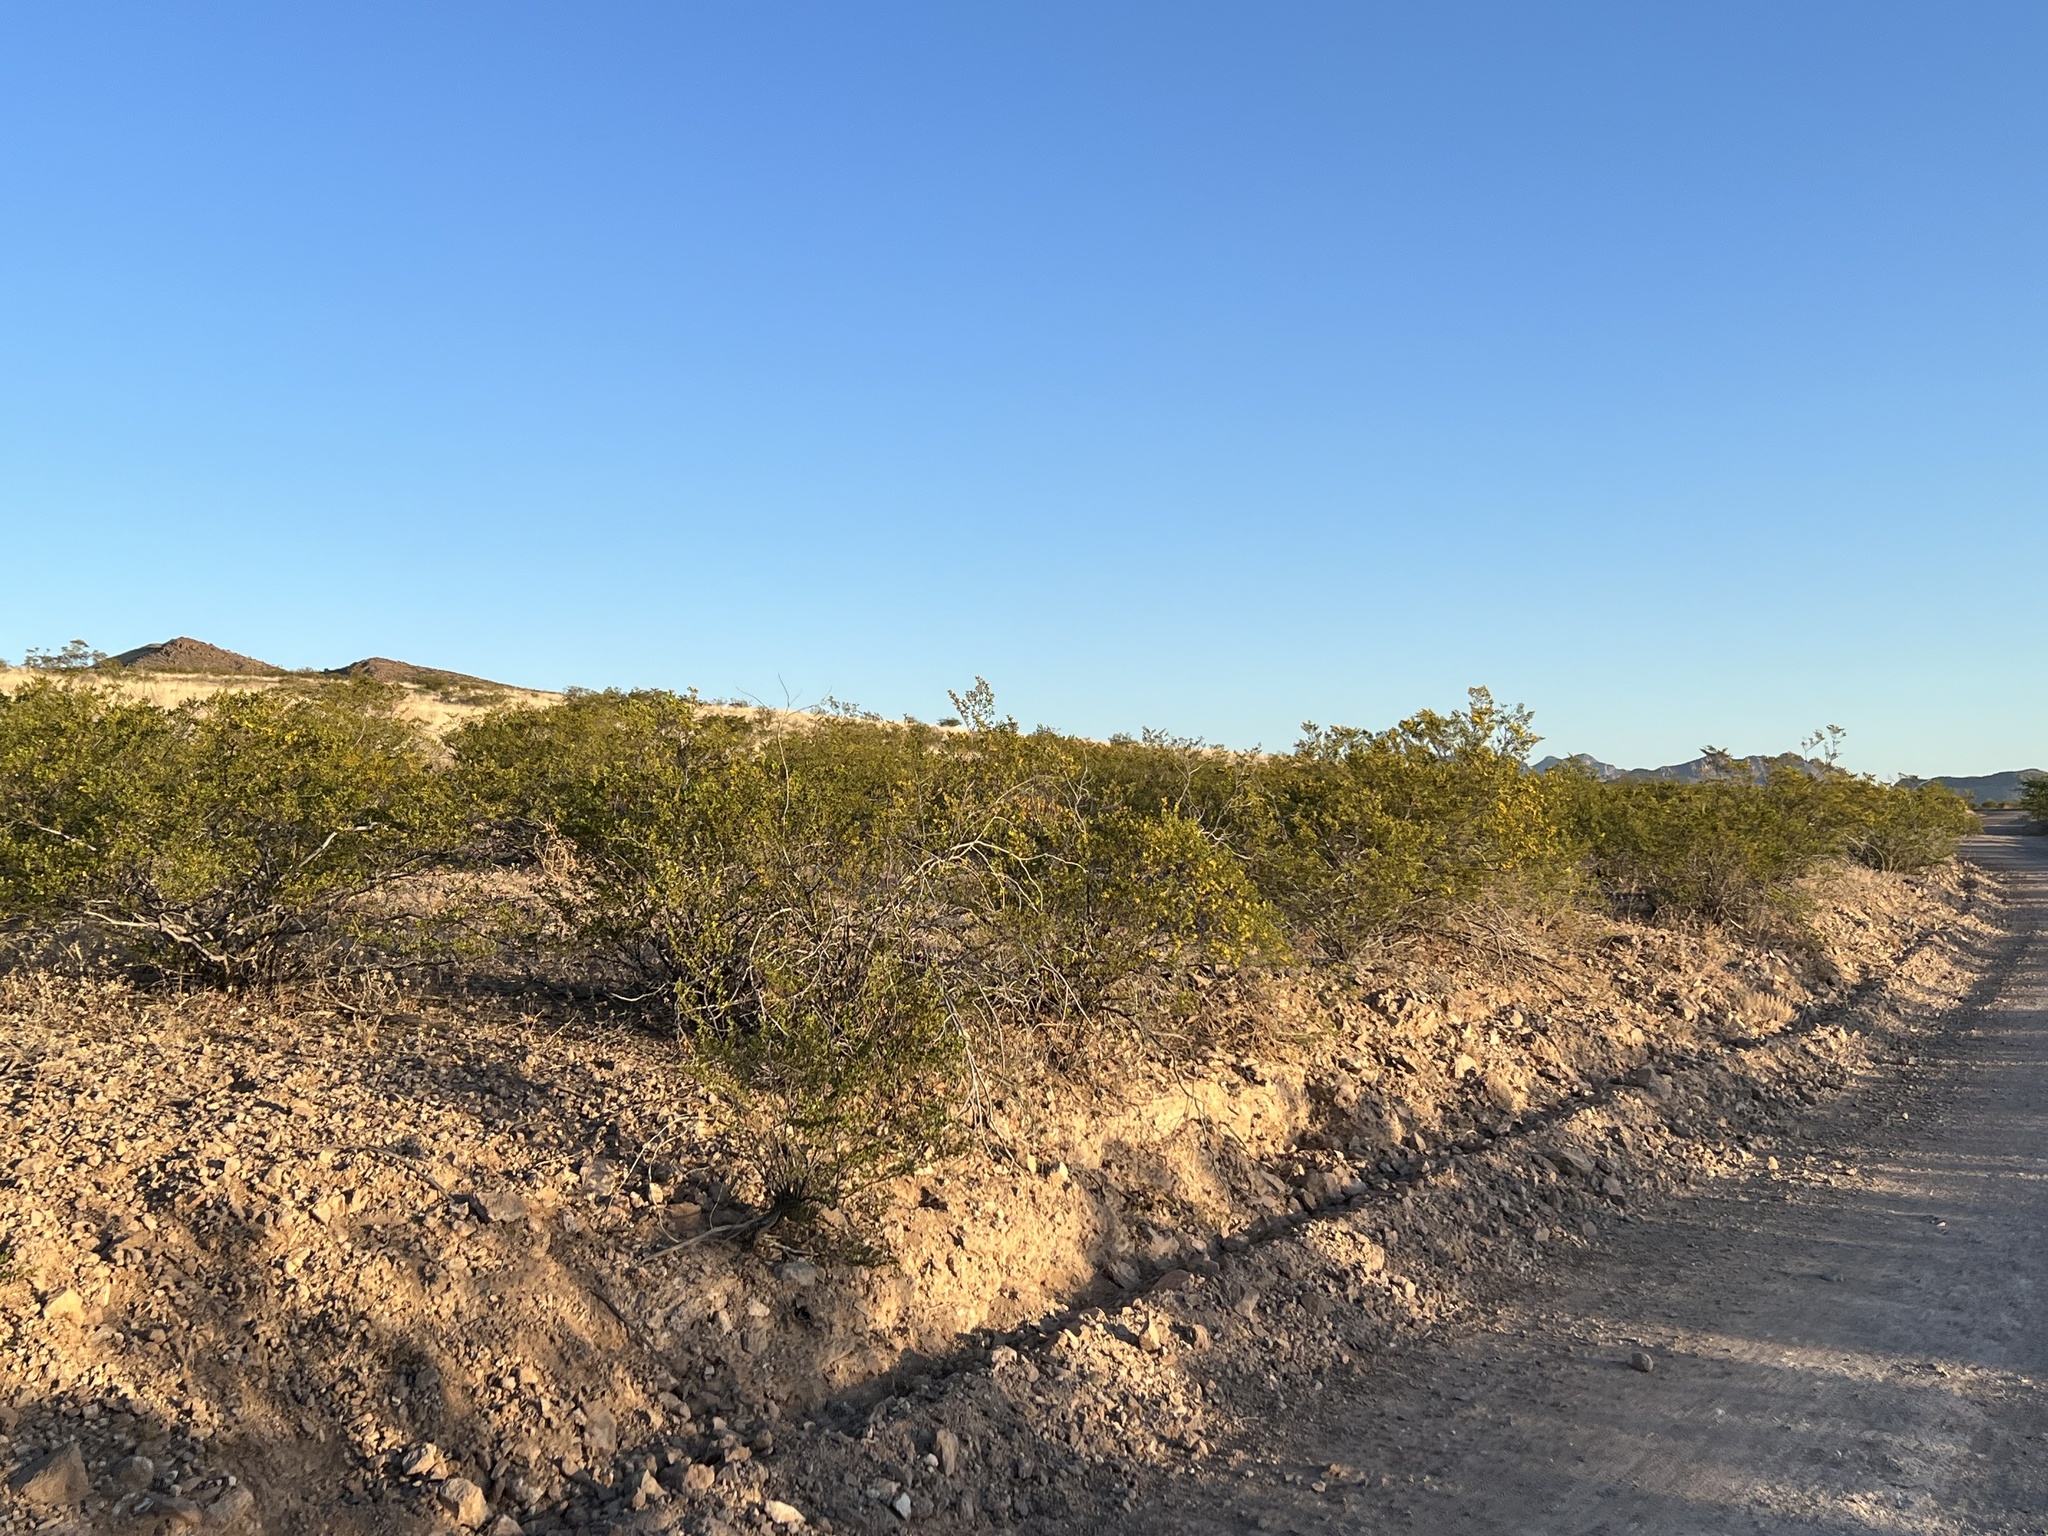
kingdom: Plantae
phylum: Tracheophyta
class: Magnoliopsida
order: Zygophyllales
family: Zygophyllaceae
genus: Larrea
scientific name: Larrea tridentata
